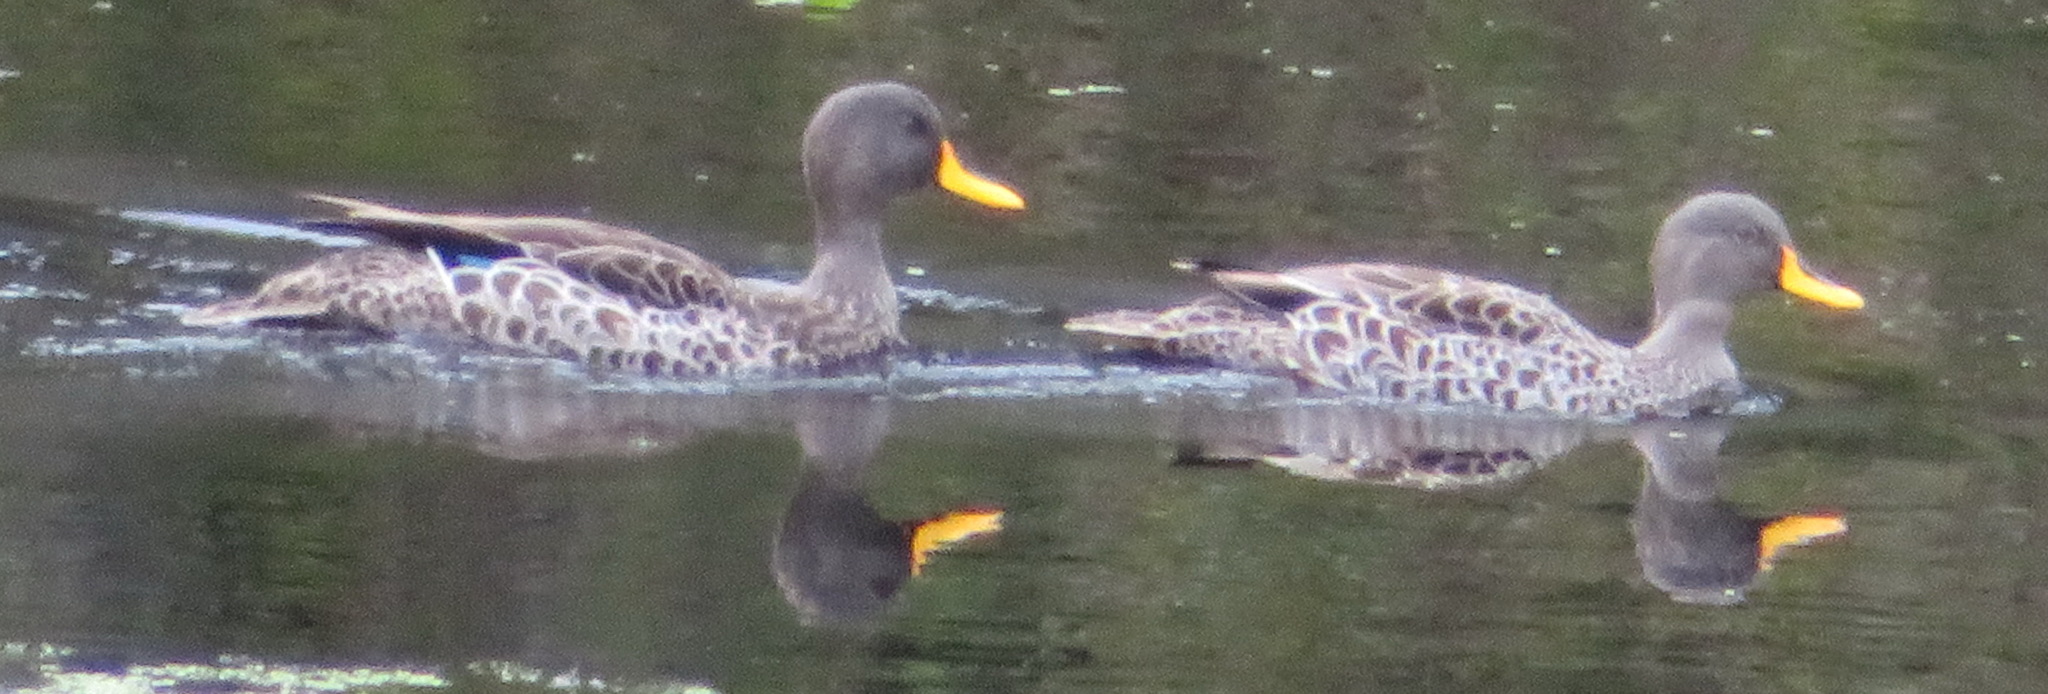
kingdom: Animalia
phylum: Chordata
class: Aves
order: Anseriformes
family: Anatidae
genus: Anas
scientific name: Anas undulata
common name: Yellow-billed duck
